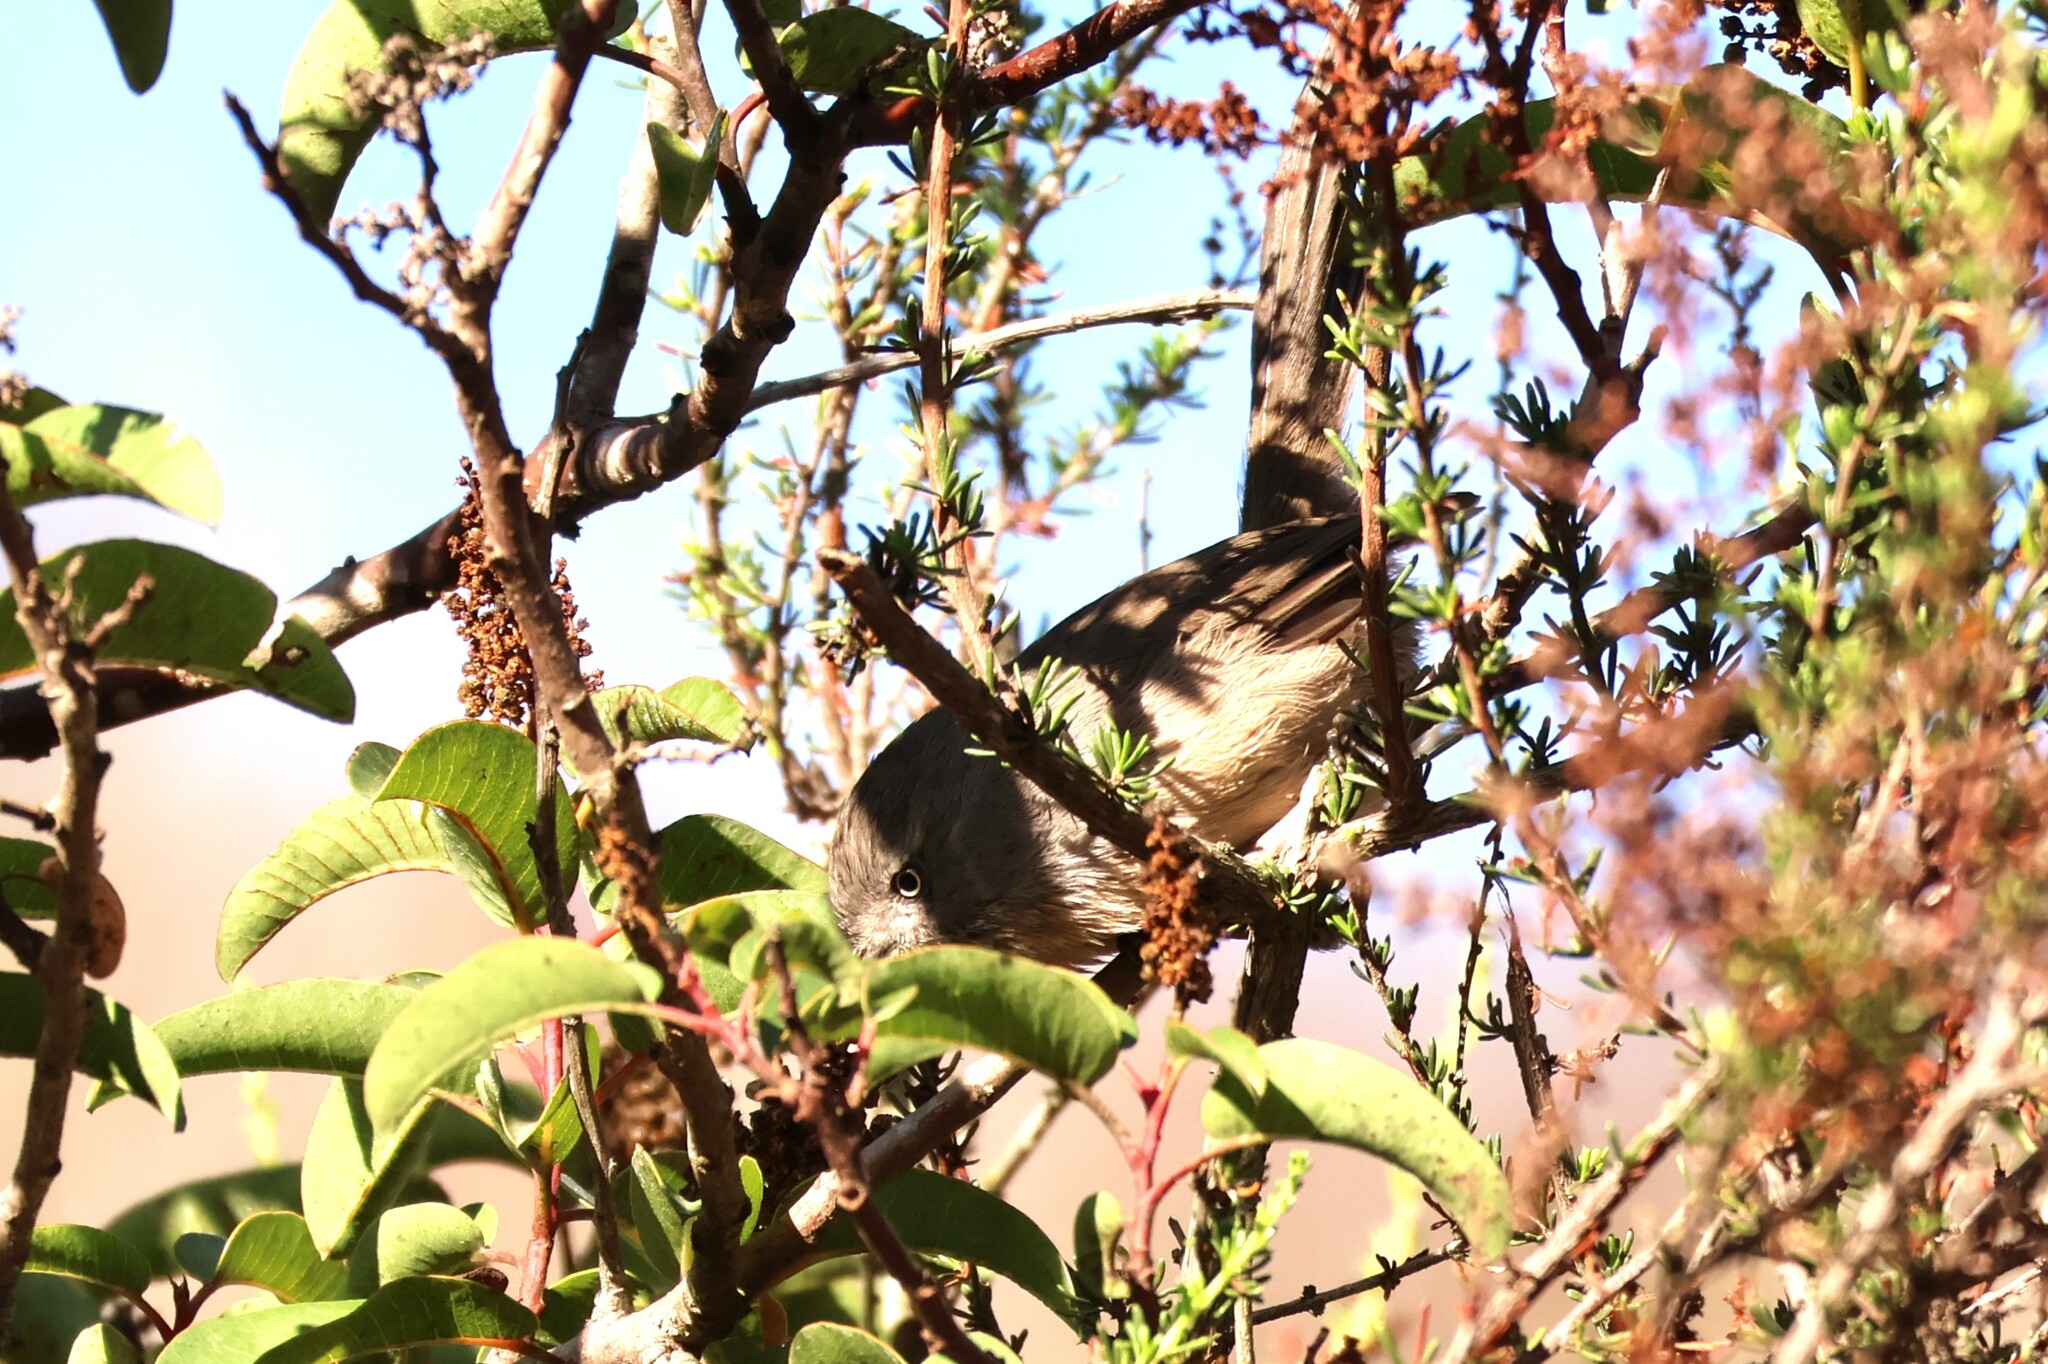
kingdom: Animalia
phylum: Chordata
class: Aves
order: Passeriformes
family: Sylviidae
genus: Chamaea
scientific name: Chamaea fasciata
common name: Wrentit
